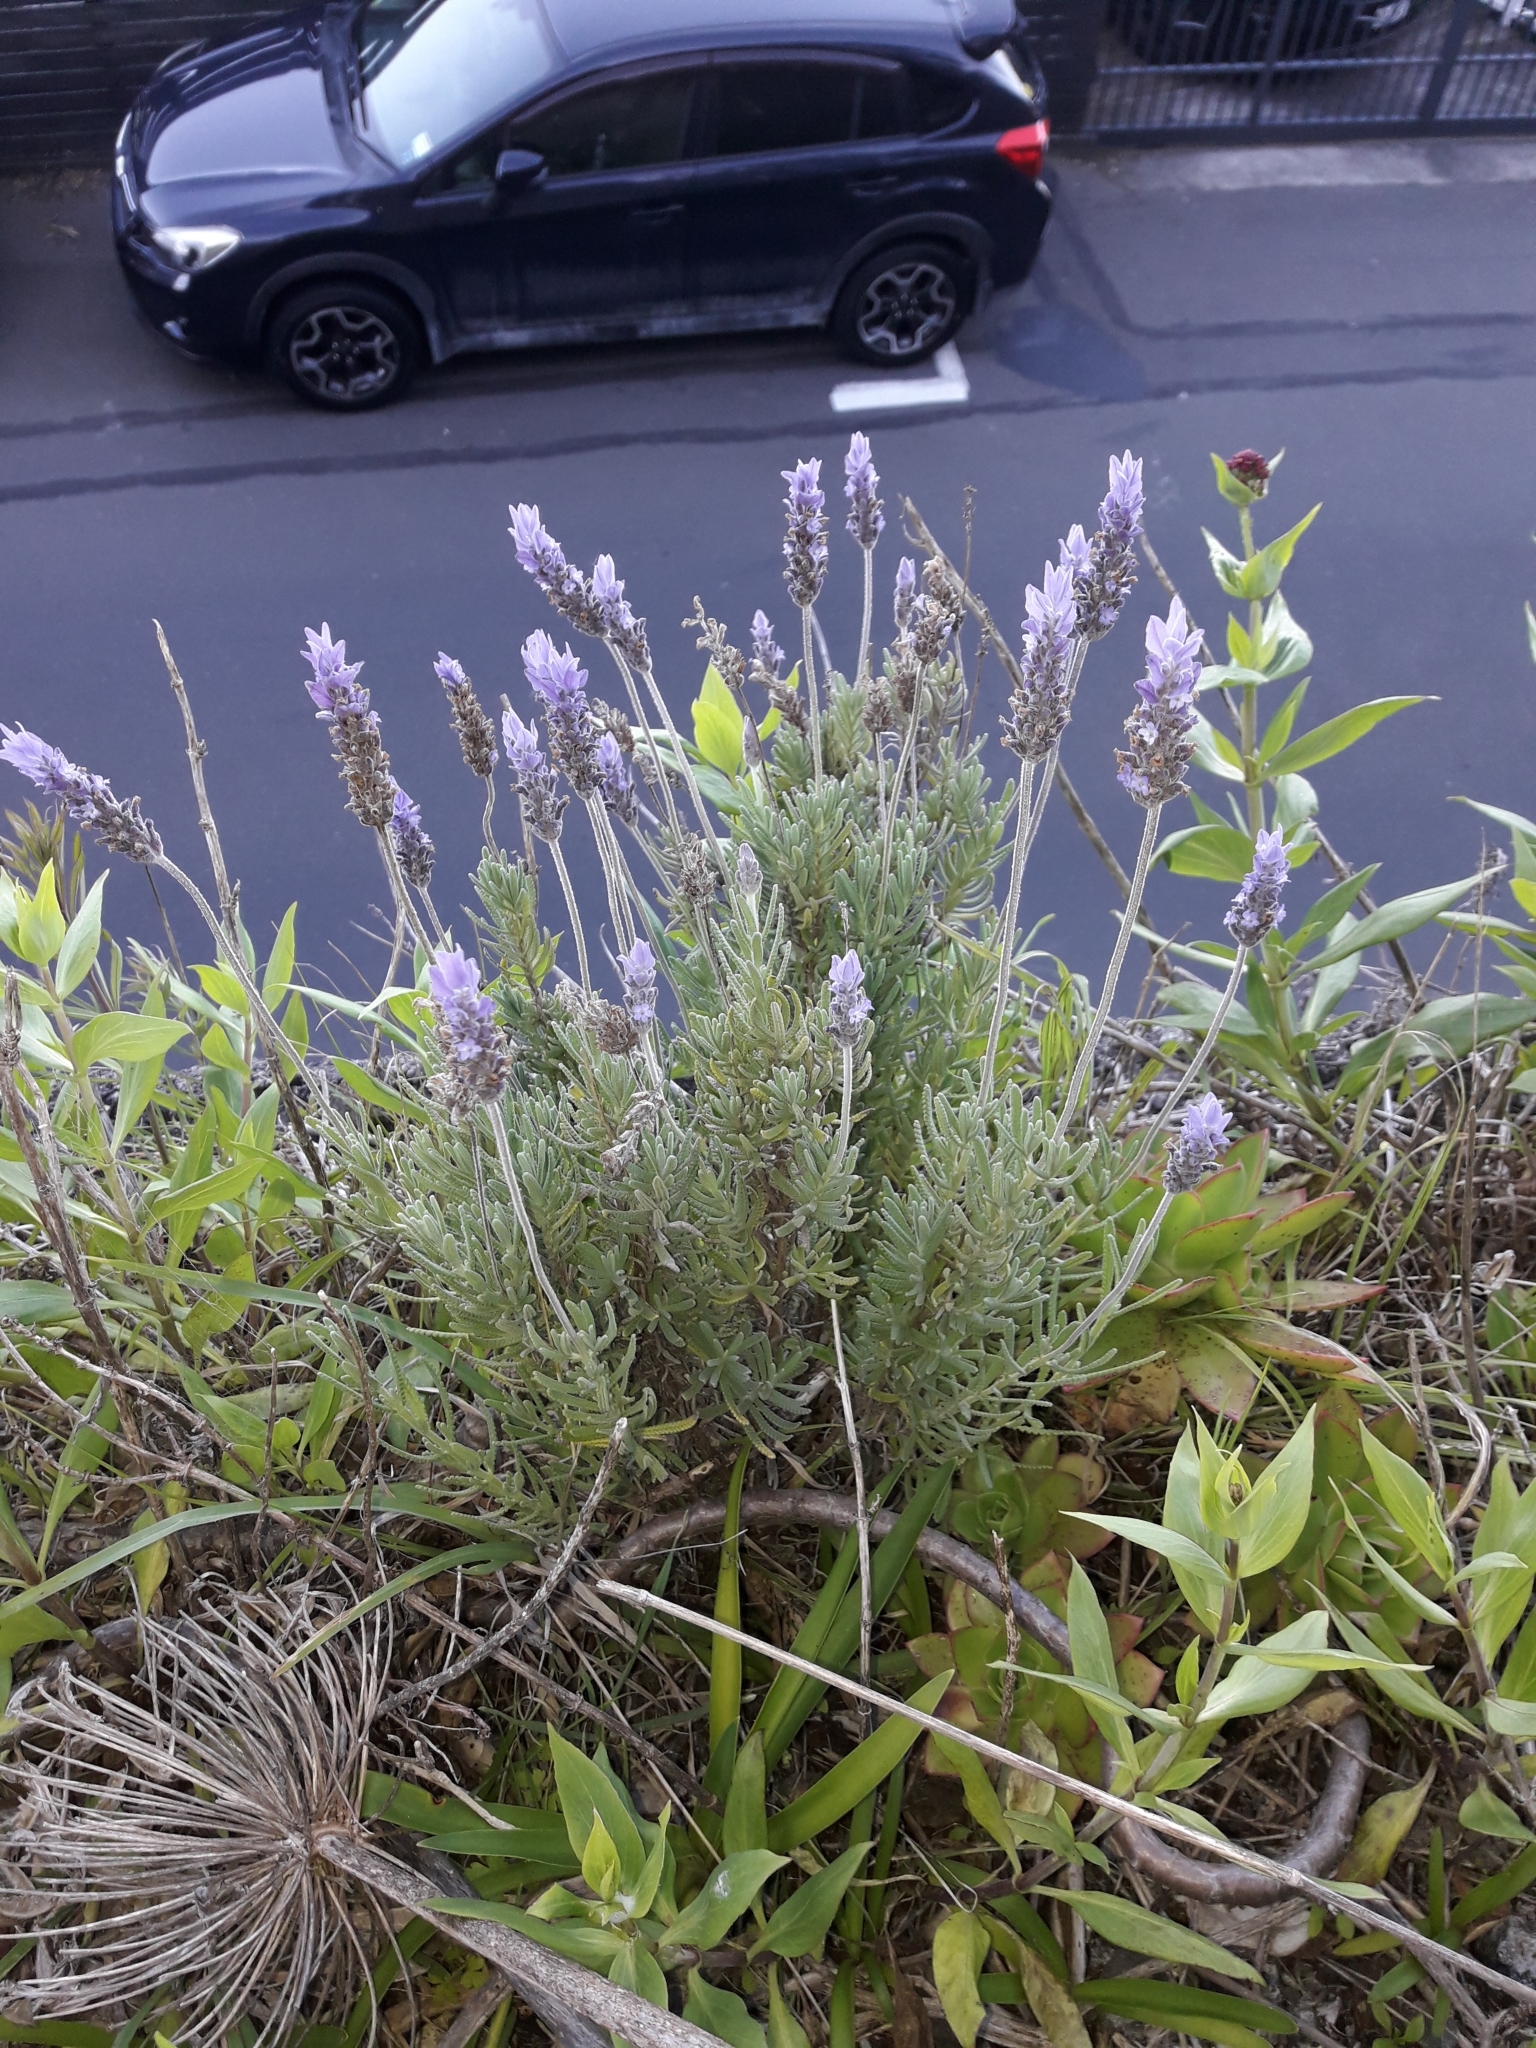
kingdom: Plantae
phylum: Tracheophyta
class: Magnoliopsida
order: Lamiales
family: Lamiaceae
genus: Lavandula
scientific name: Lavandula dentata
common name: French lavender
